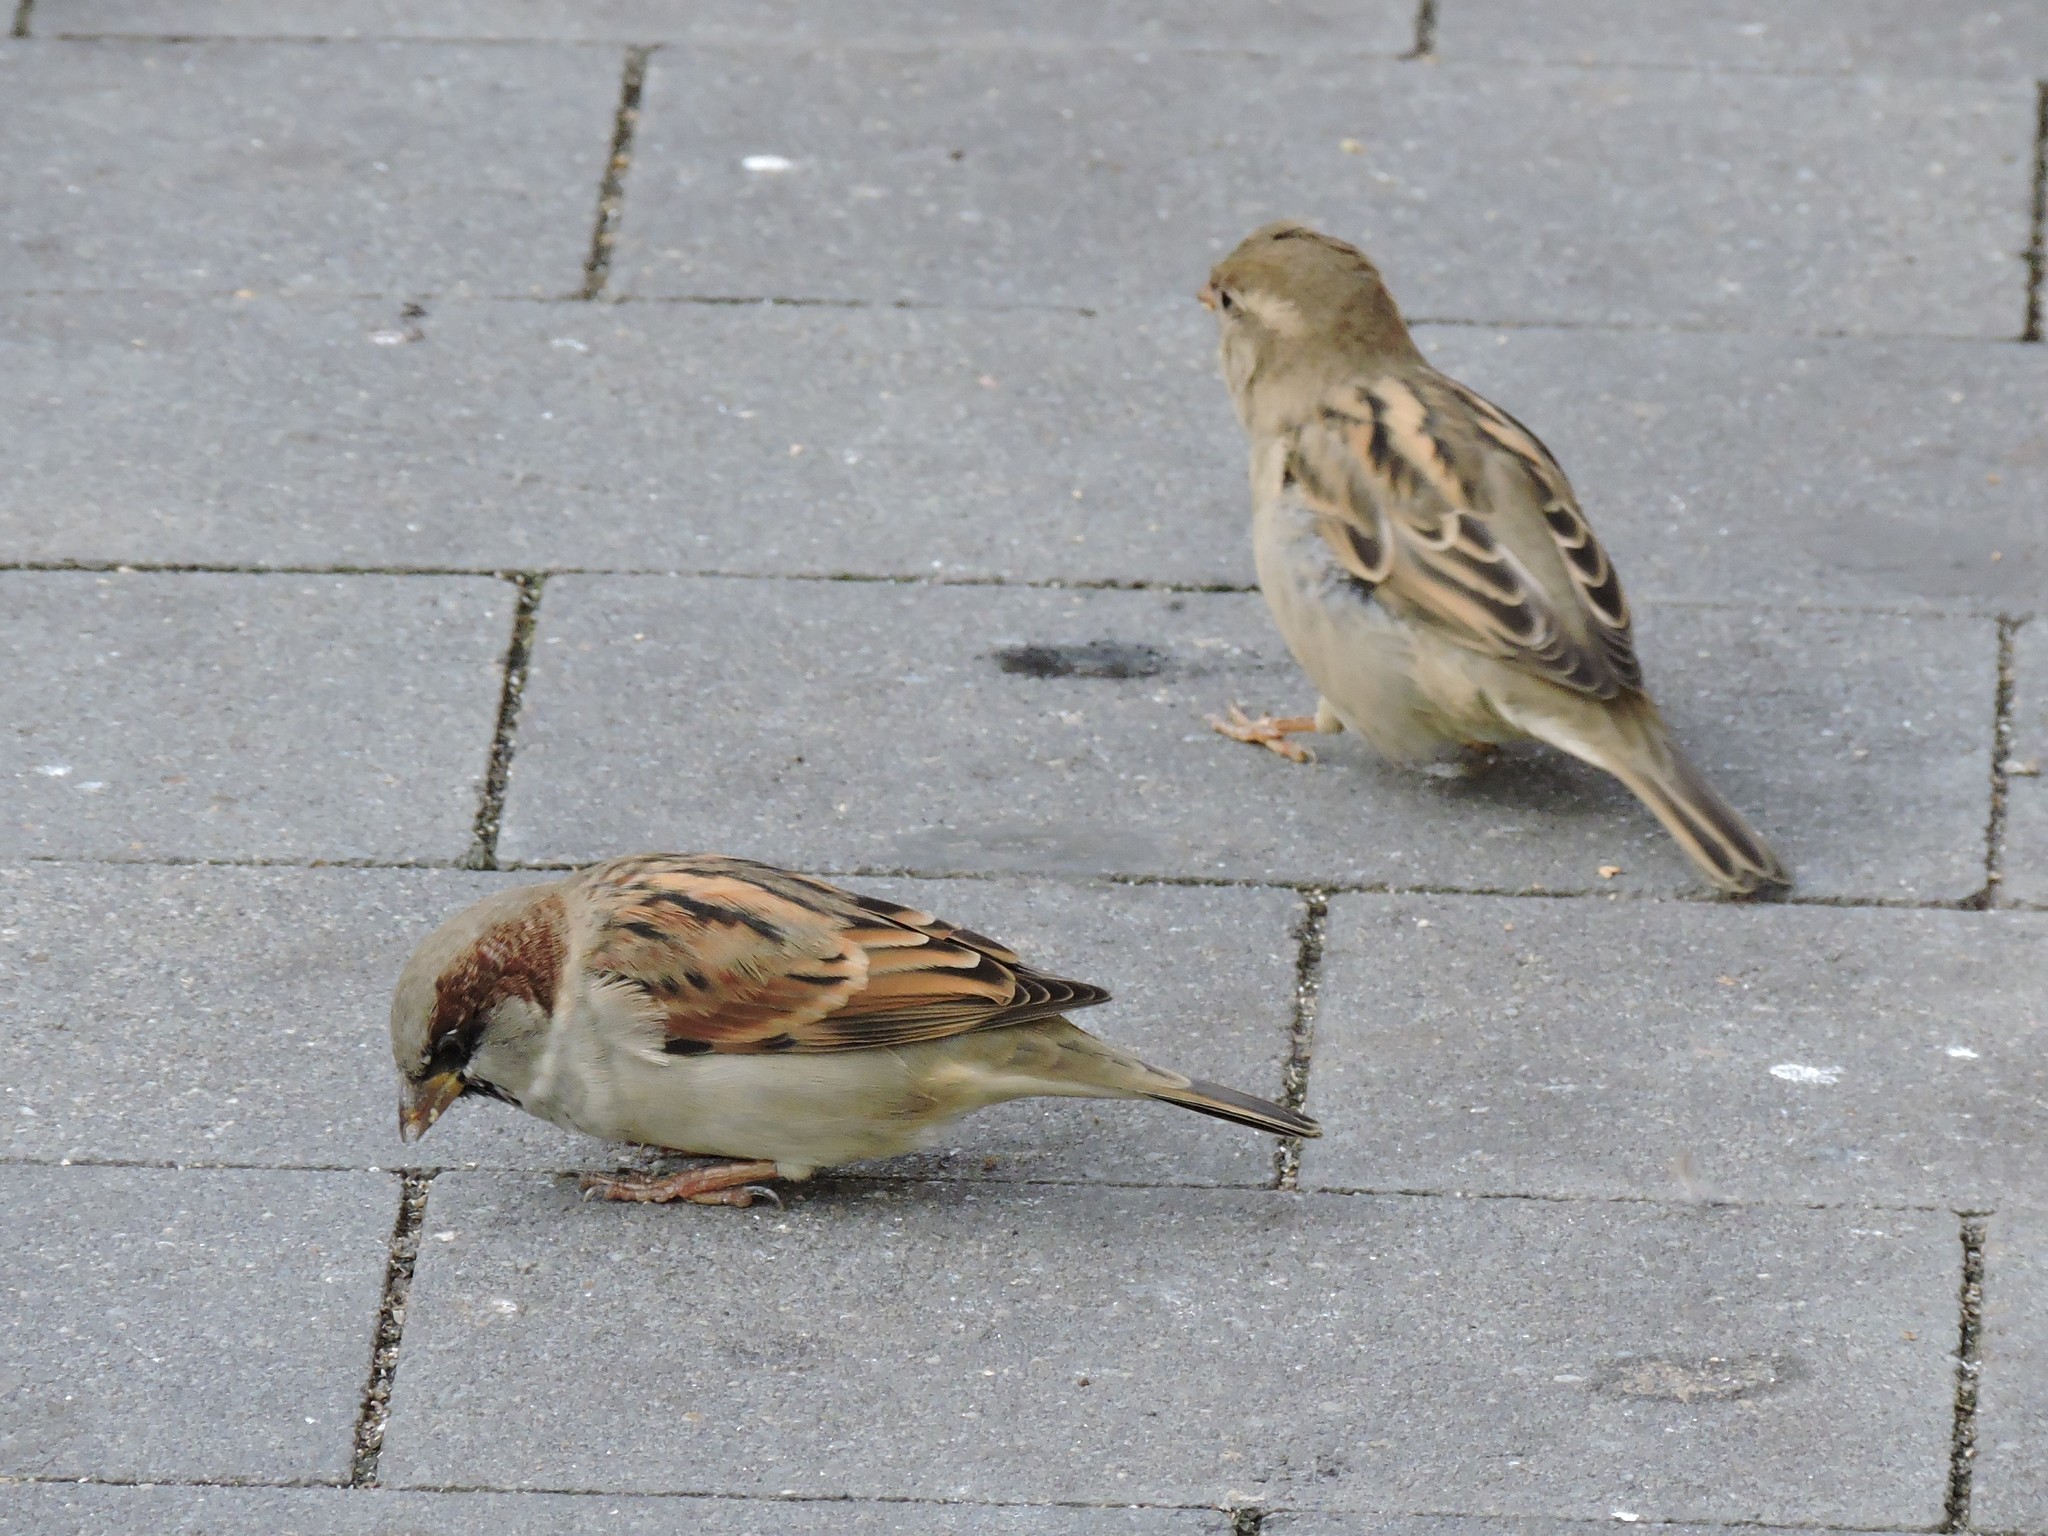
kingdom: Animalia
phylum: Chordata
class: Aves
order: Passeriformes
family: Passeridae
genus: Passer
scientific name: Passer domesticus
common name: House sparrow
